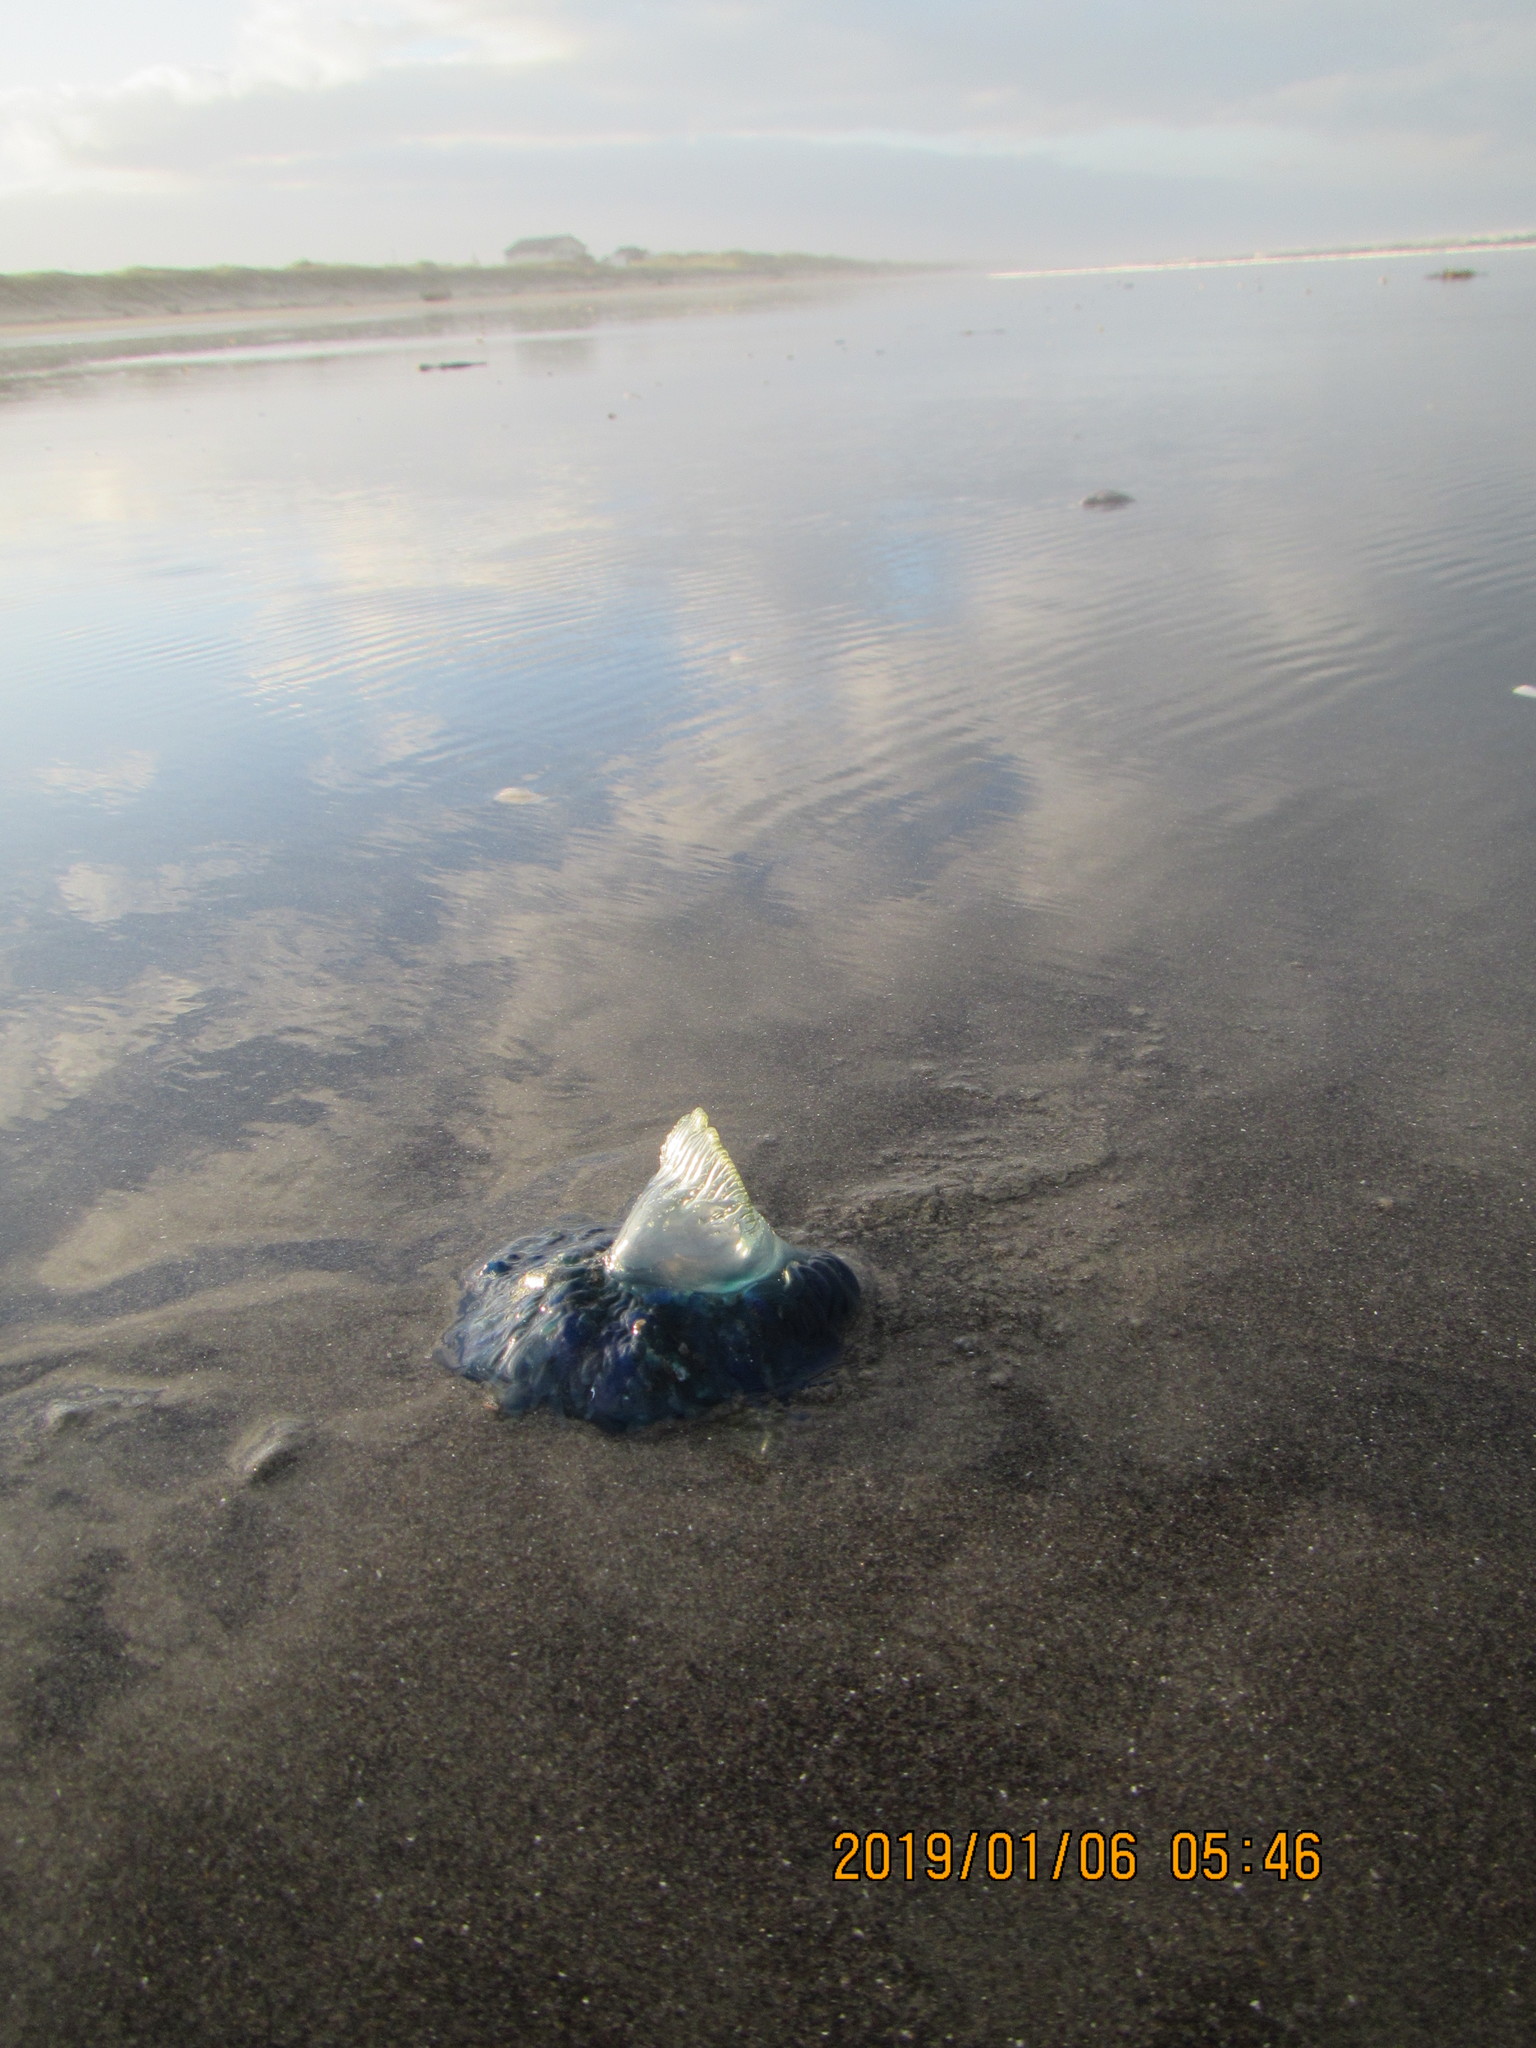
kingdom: Animalia
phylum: Cnidaria
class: Hydrozoa
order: Siphonophorae
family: Physaliidae
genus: Physalia
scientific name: Physalia physalis
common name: Portuguese man-of-war
